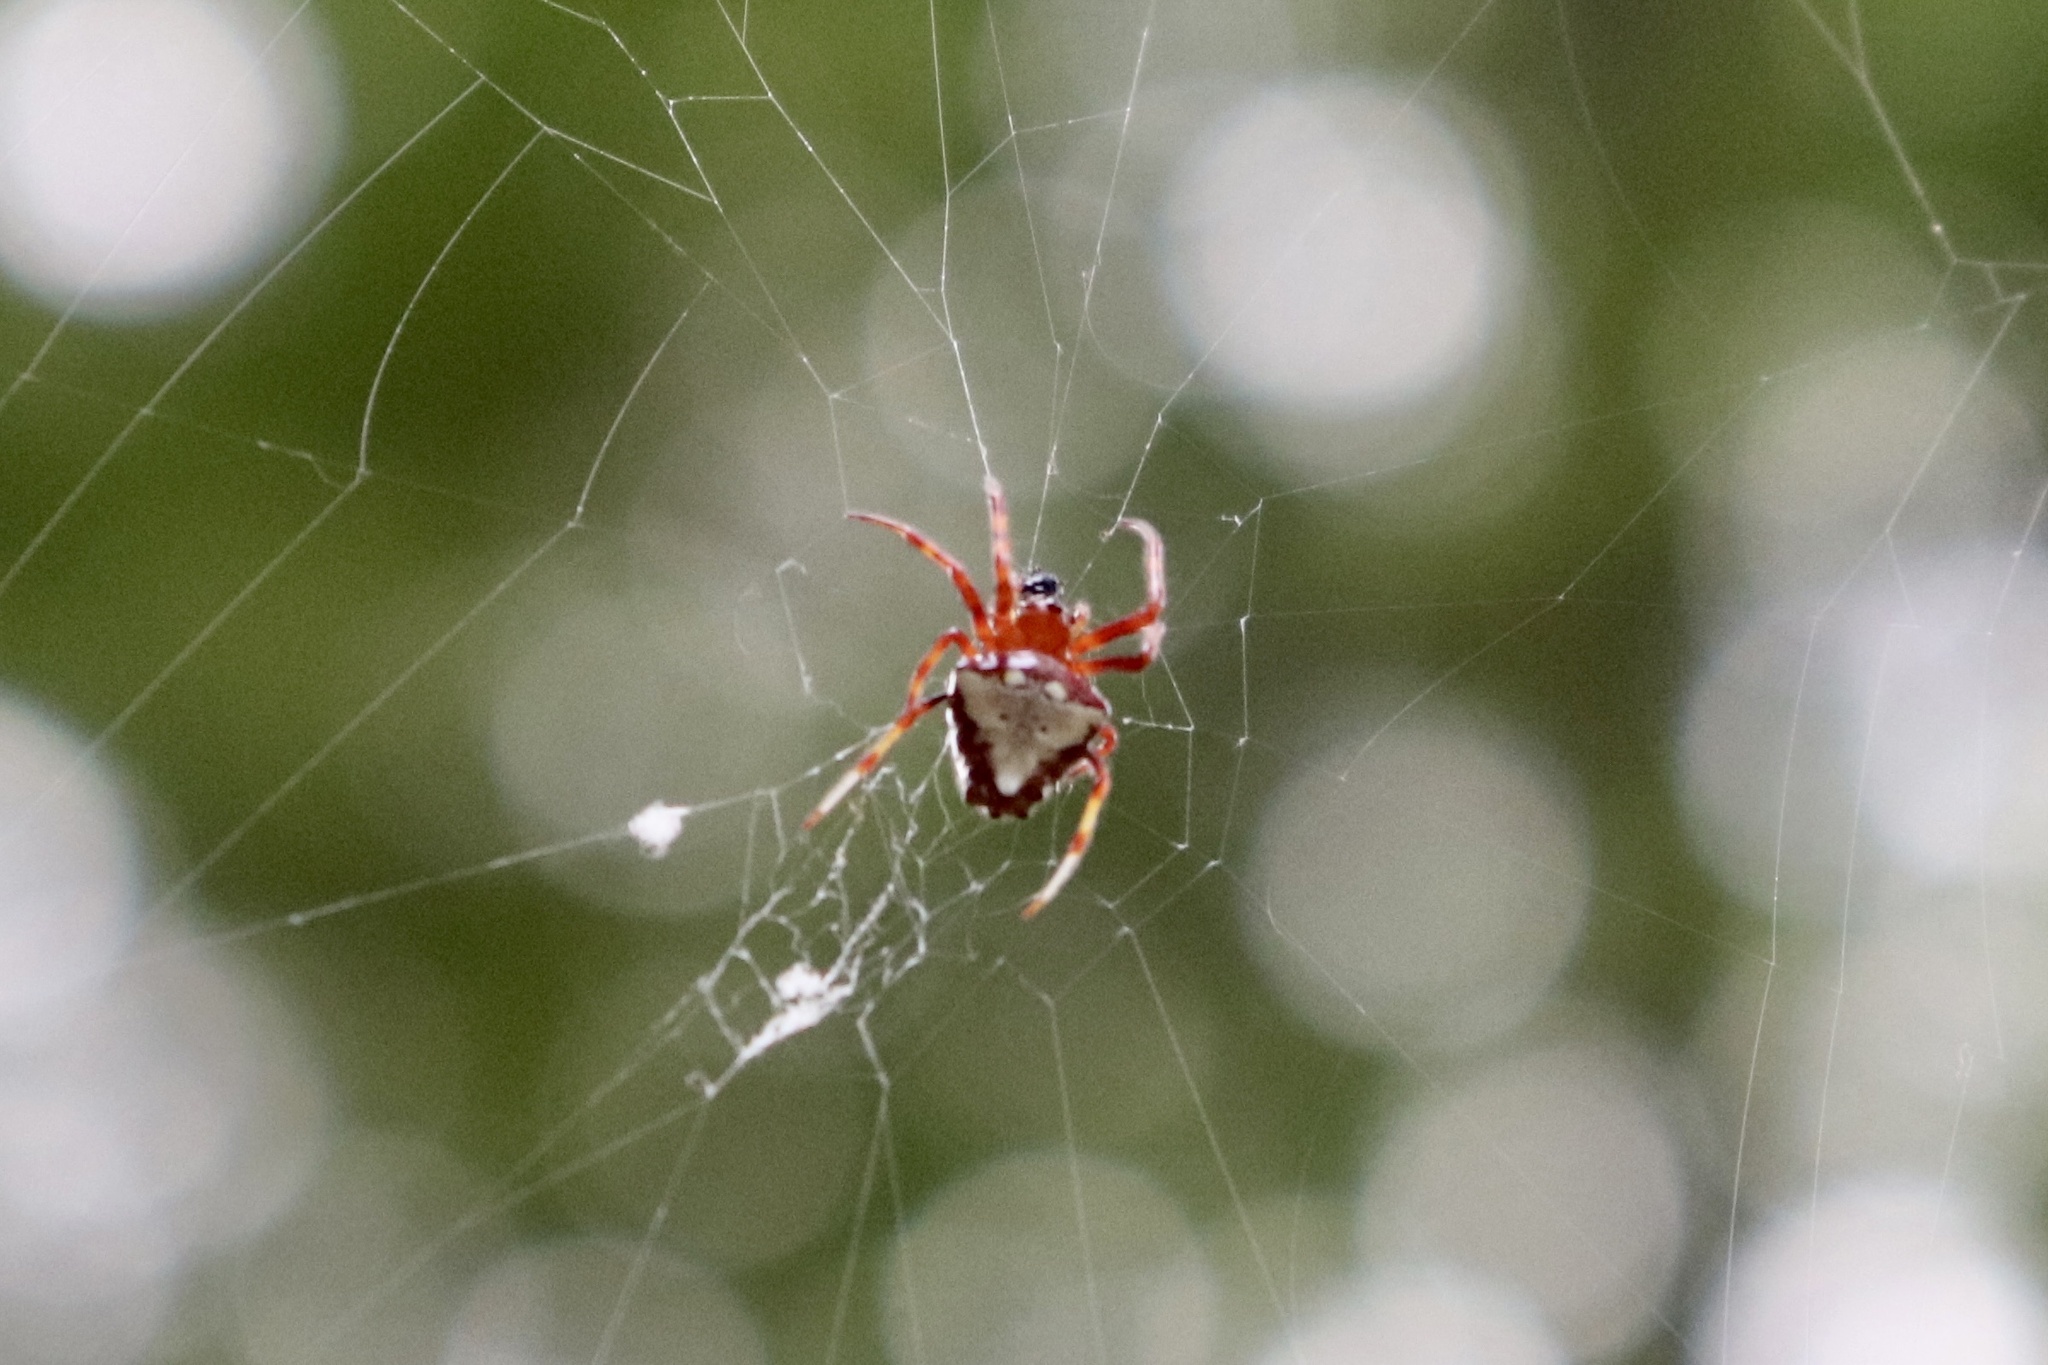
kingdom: Animalia
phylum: Arthropoda
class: Arachnida
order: Araneae
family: Araneidae
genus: Verrucosa
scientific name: Verrucosa arenata
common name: Orb weavers
